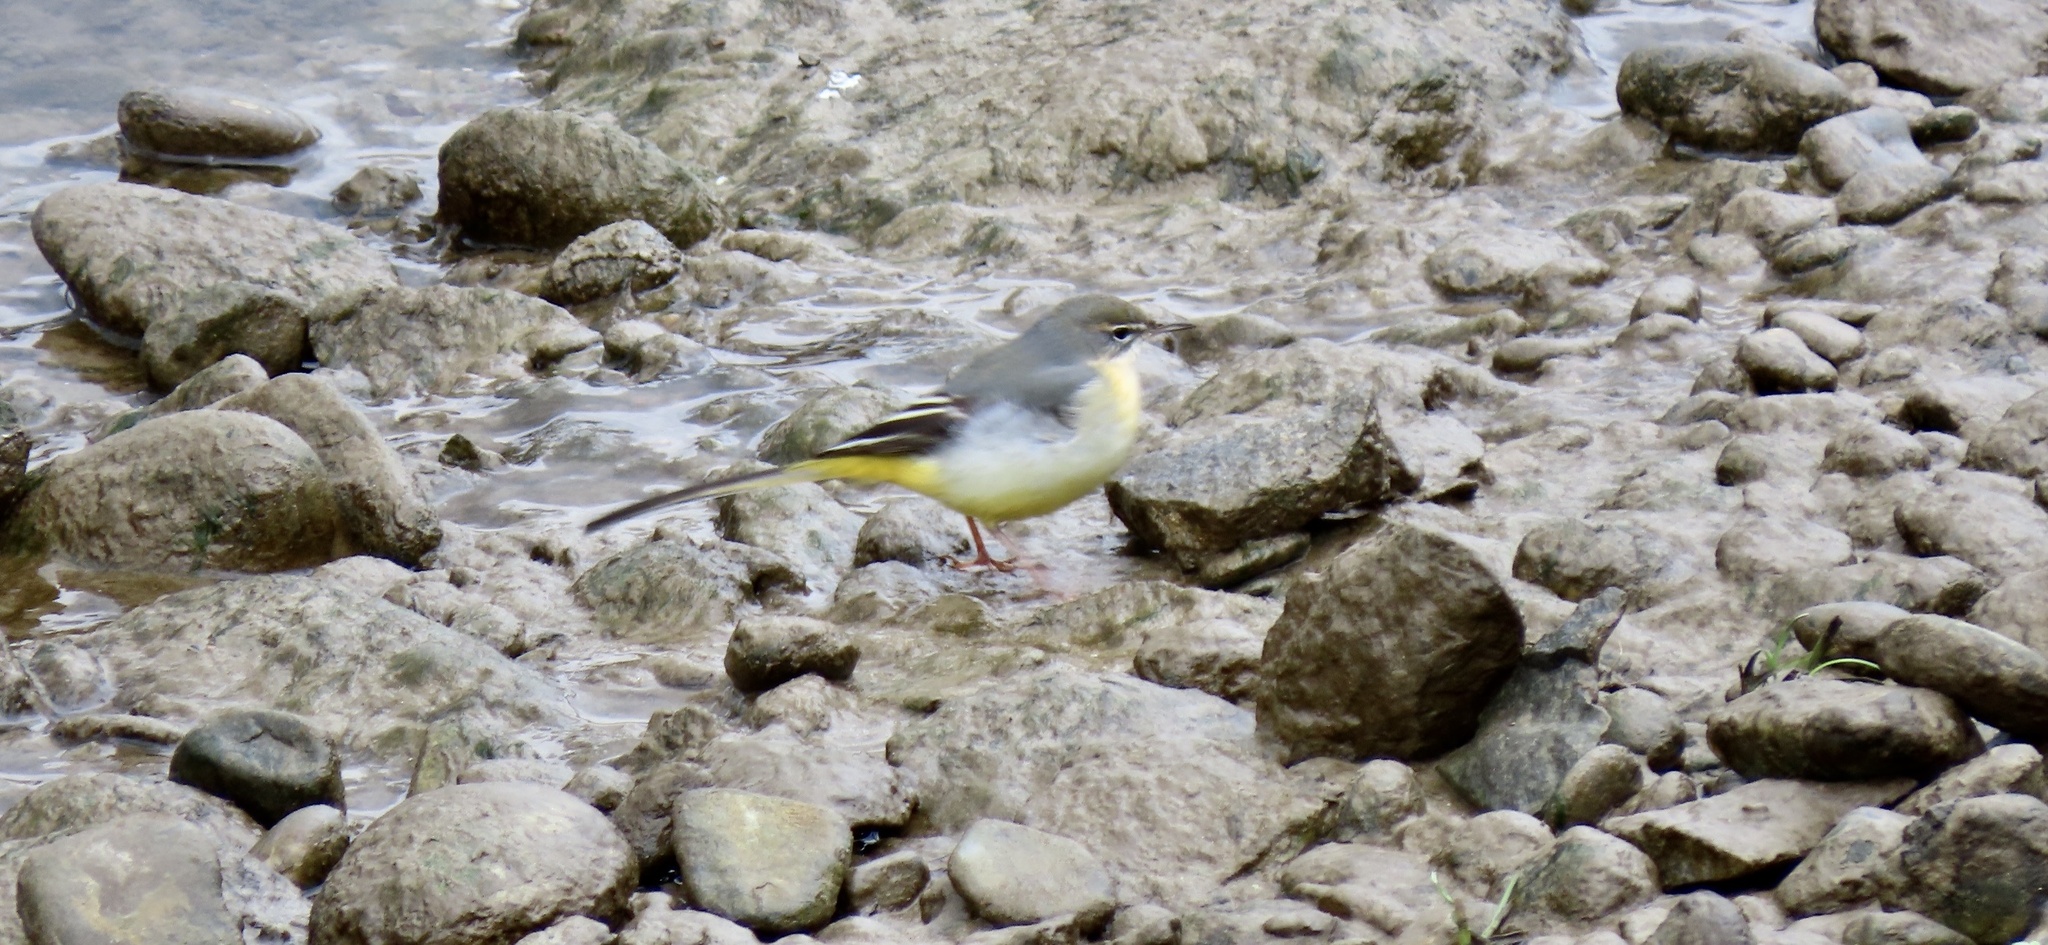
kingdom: Animalia
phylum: Chordata
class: Aves
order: Passeriformes
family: Motacillidae
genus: Motacilla
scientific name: Motacilla cinerea
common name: Grey wagtail
